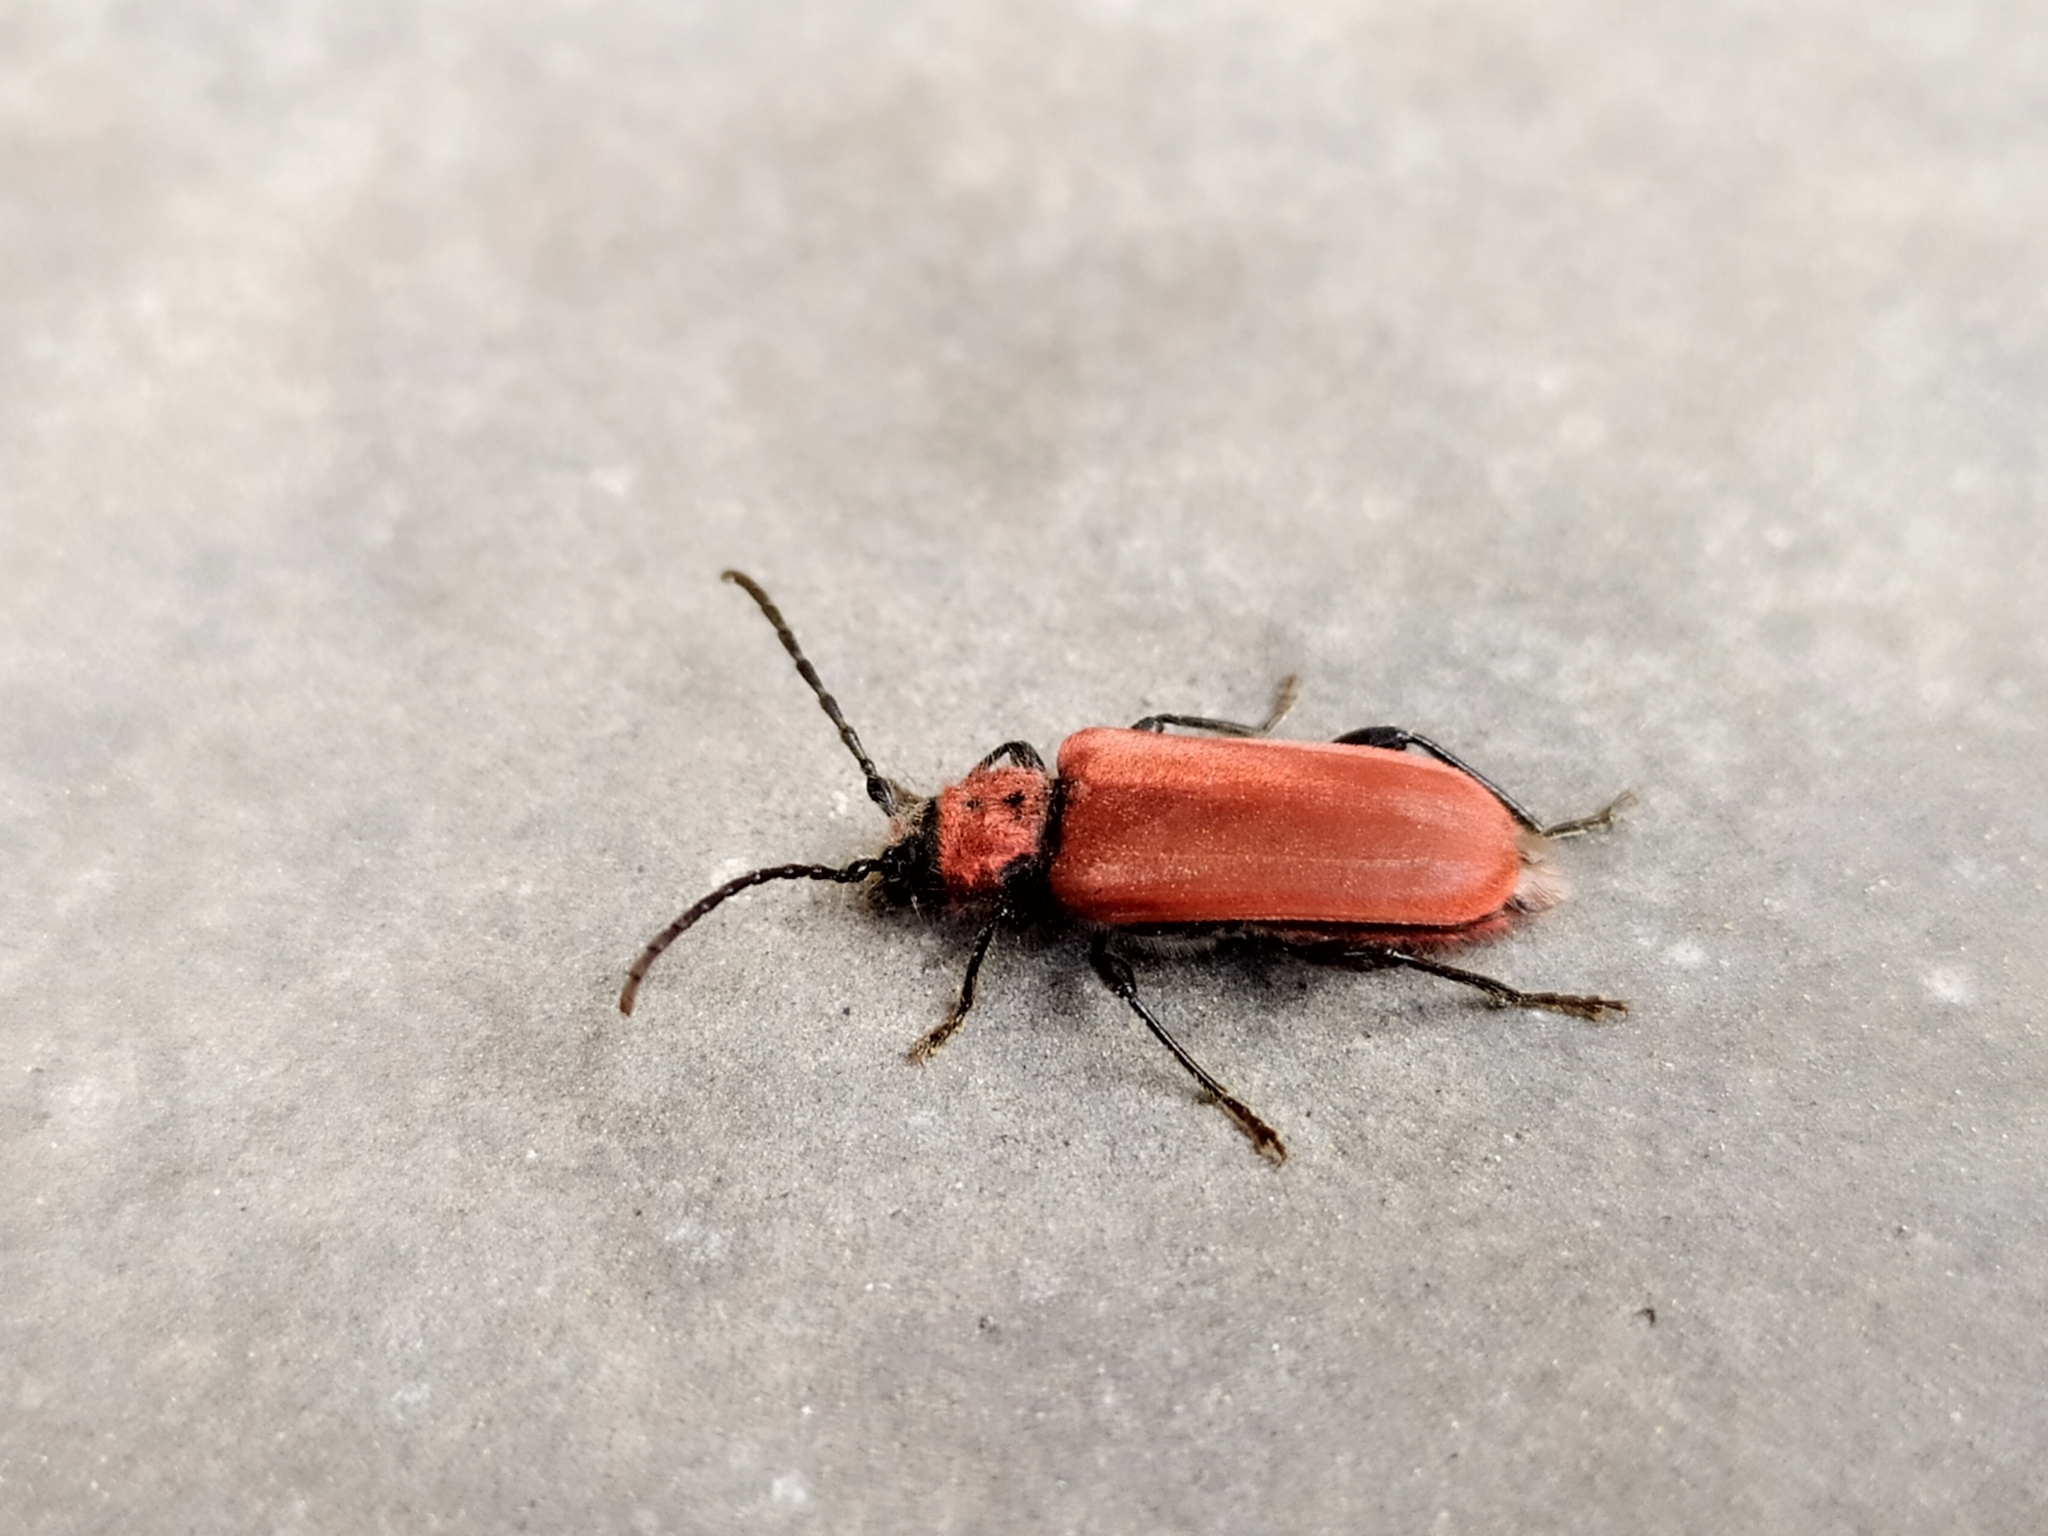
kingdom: Animalia
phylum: Arthropoda
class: Insecta
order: Coleoptera
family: Cerambycidae
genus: Pyrrhidium
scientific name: Pyrrhidium sanguineum
